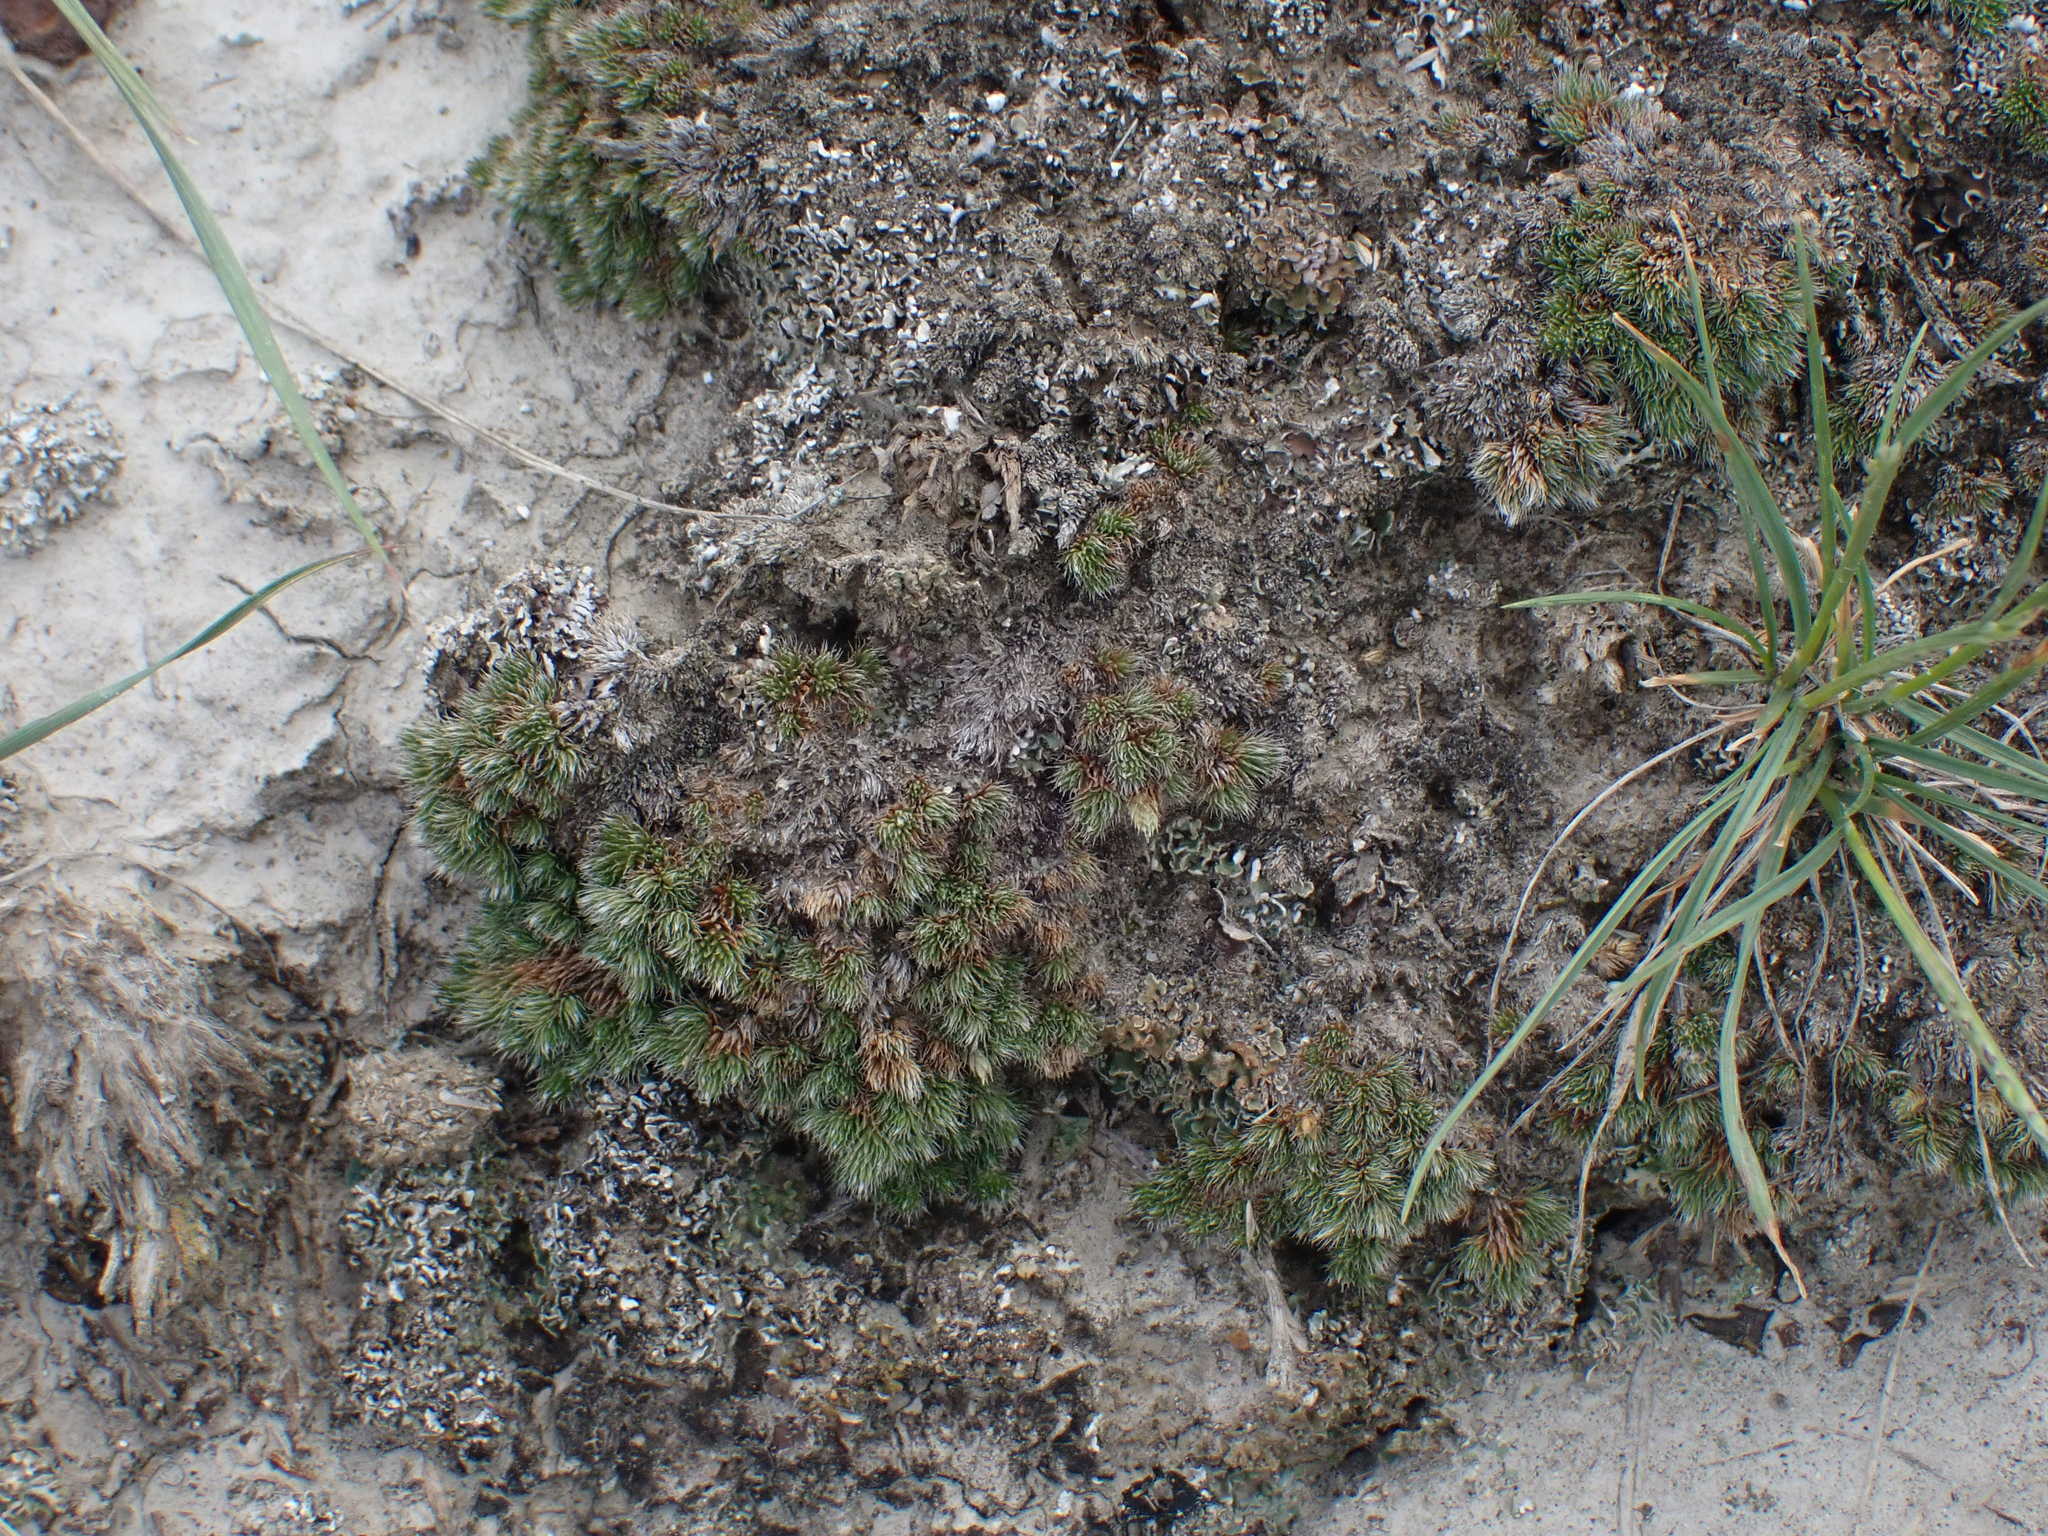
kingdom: Plantae
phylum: Tracheophyta
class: Lycopodiopsida
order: Selaginellales
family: Selaginellaceae
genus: Selaginella
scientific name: Selaginella densa
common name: Mountain spike-moss
